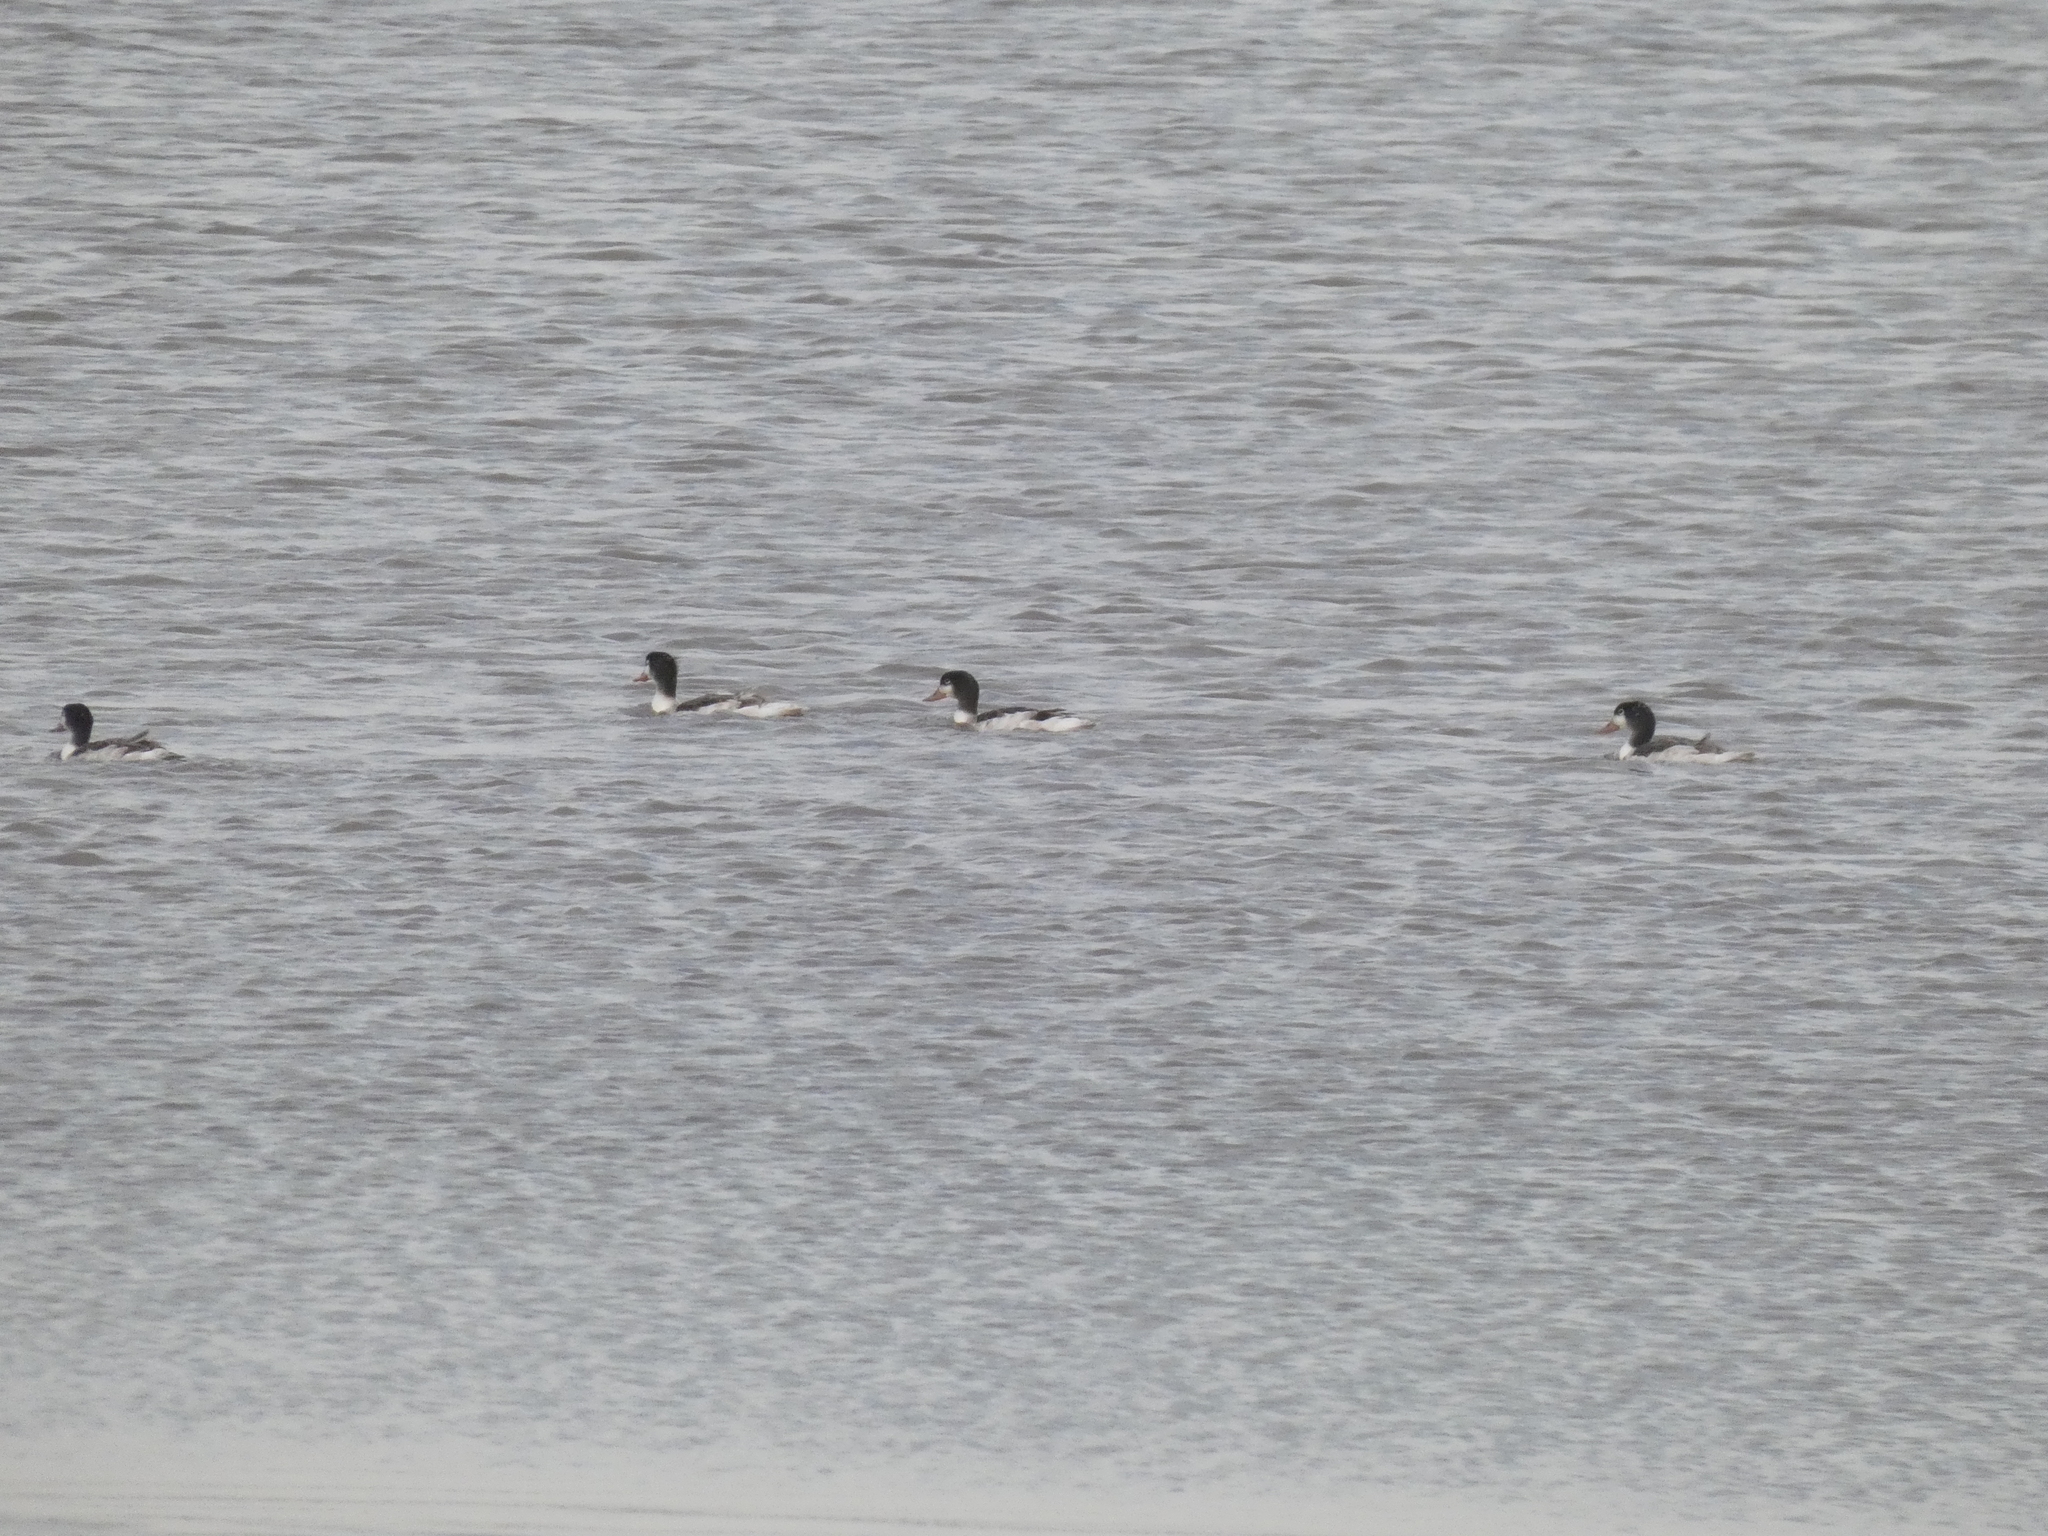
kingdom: Animalia
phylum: Chordata
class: Aves
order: Anseriformes
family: Anatidae
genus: Tadorna
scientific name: Tadorna tadorna
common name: Common shelduck
